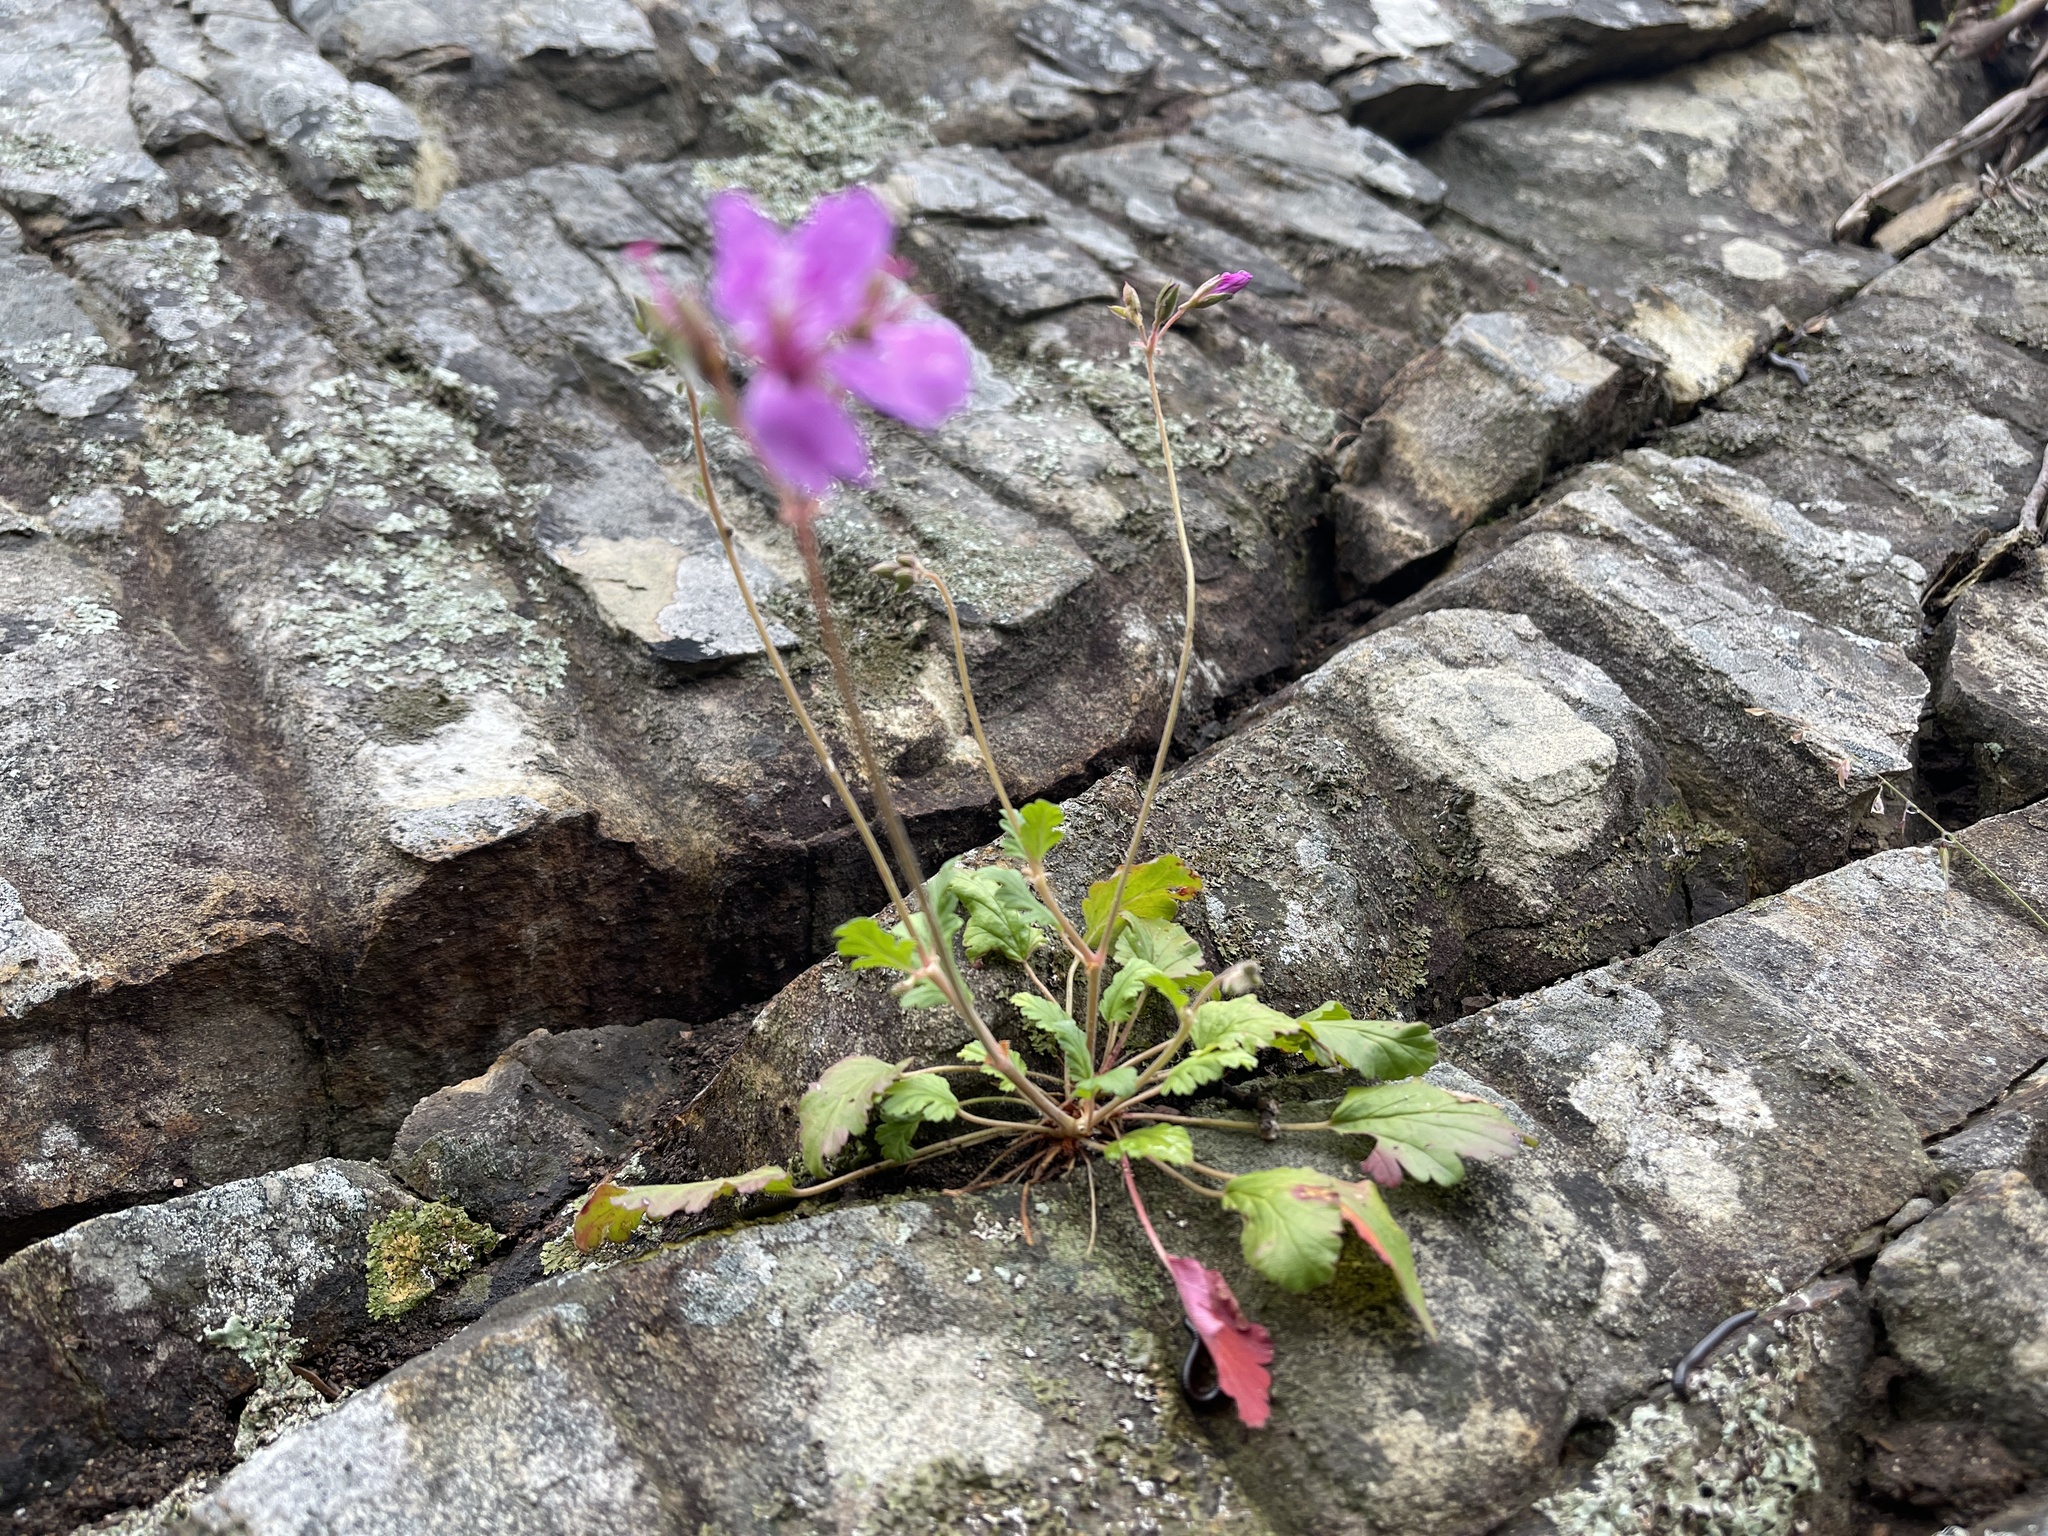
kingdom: Plantae
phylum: Tracheophyta
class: Magnoliopsida
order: Geraniales
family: Geraniaceae
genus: Pelargonium
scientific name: Pelargonium rodneyanum
